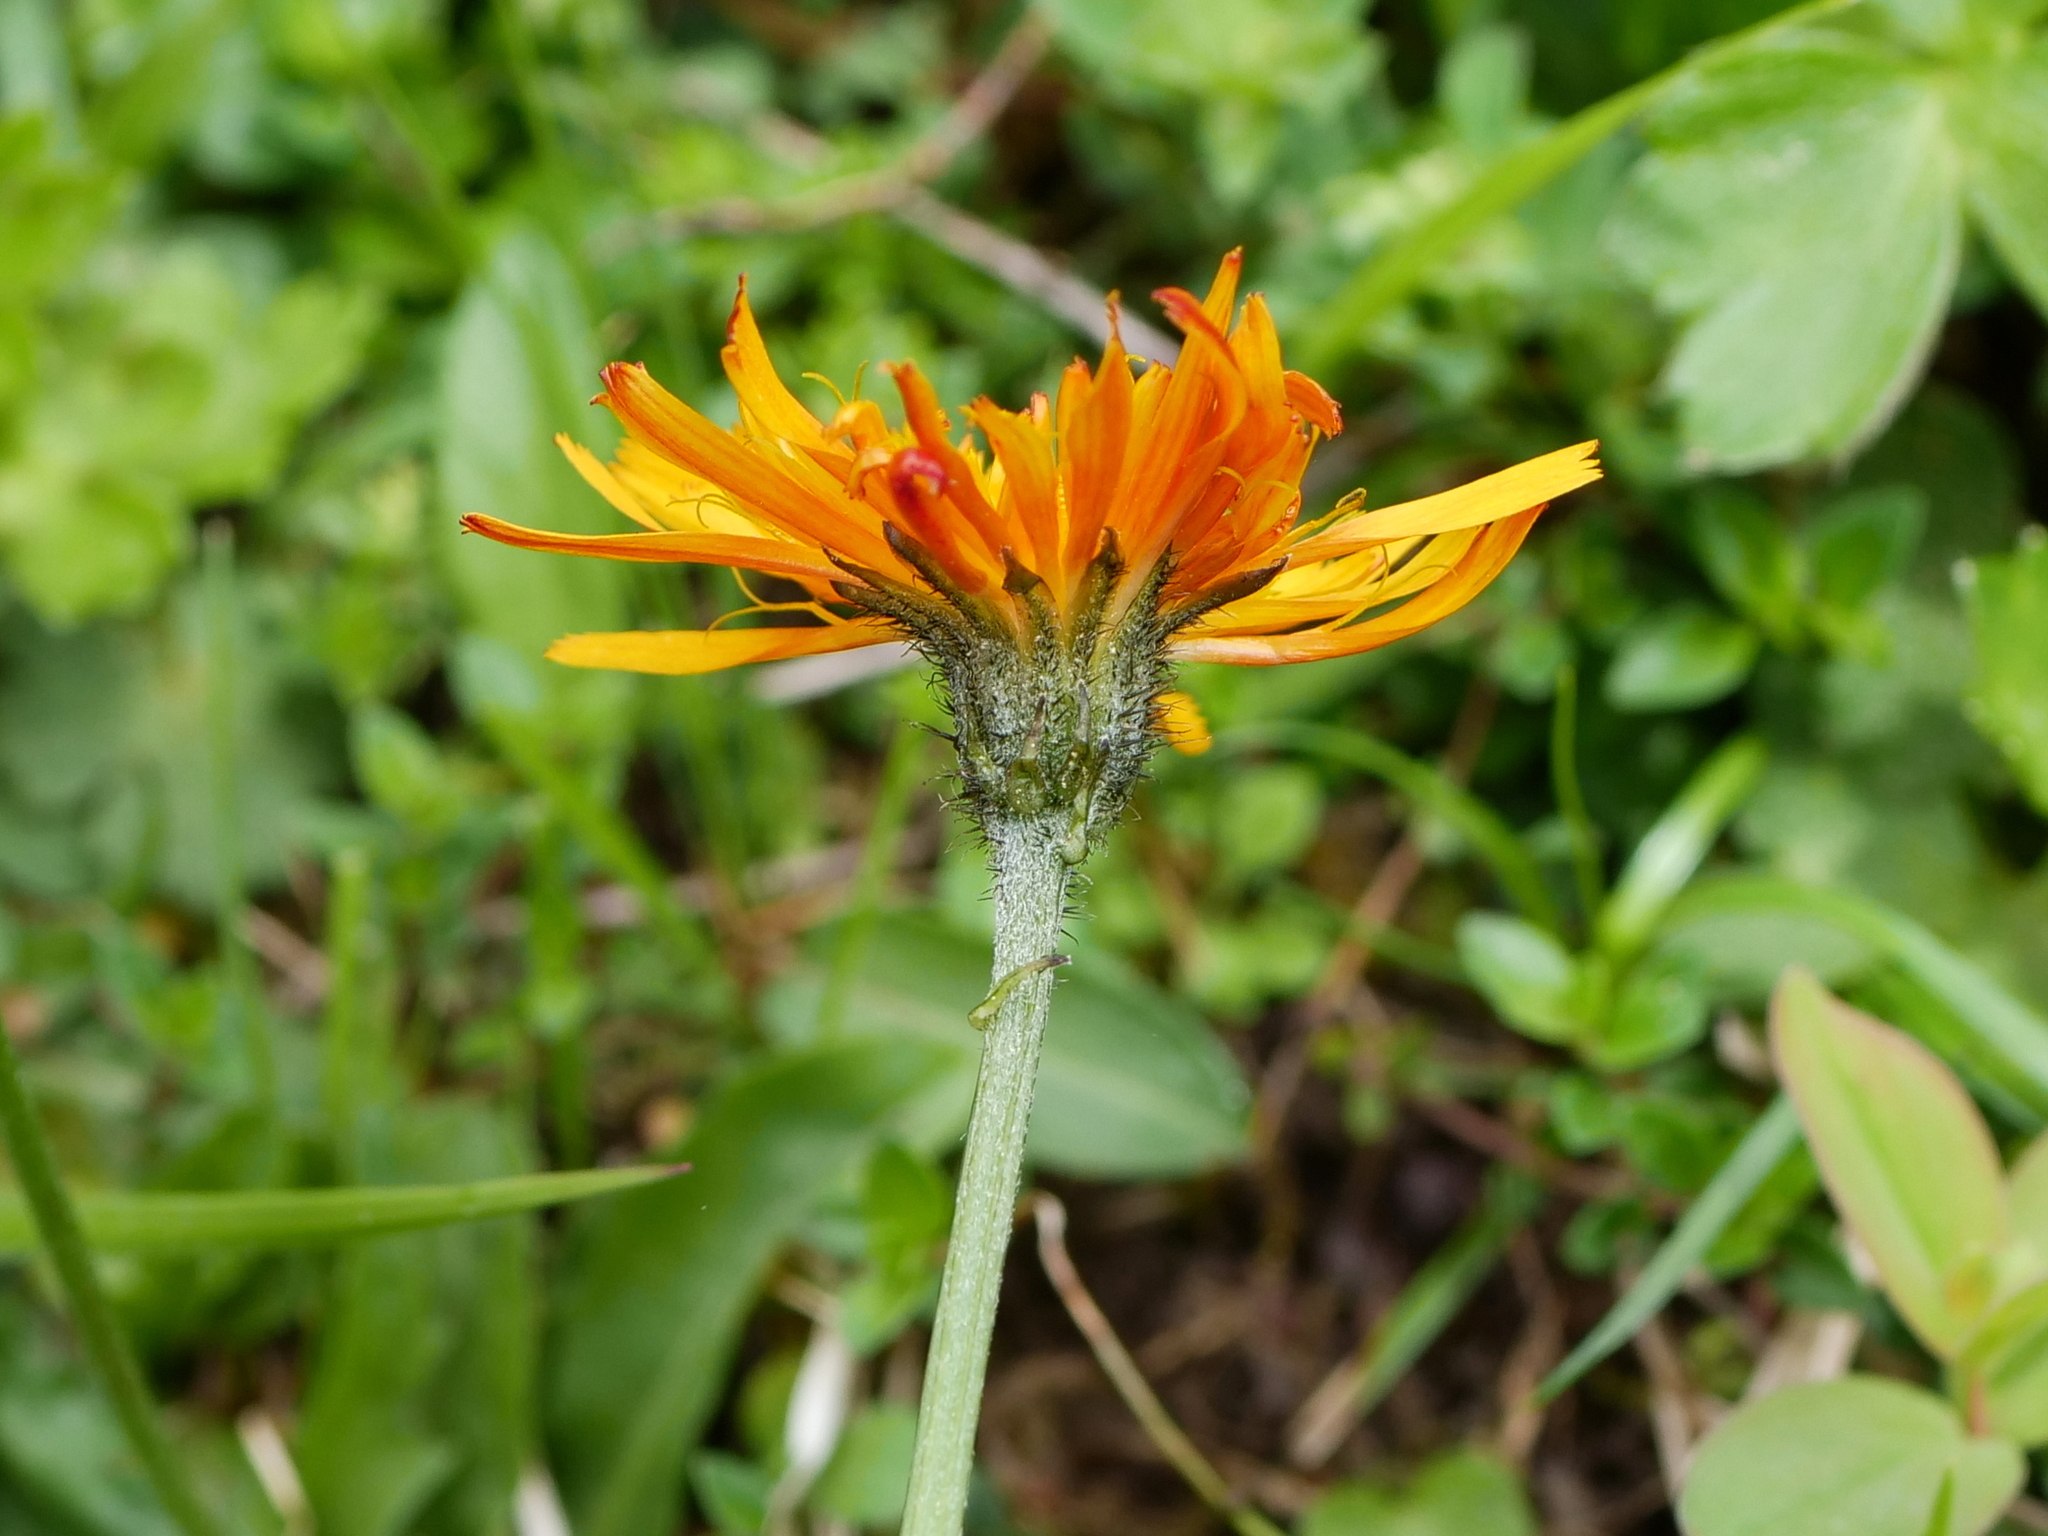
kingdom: Plantae
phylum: Tracheophyta
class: Magnoliopsida
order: Asterales
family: Asteraceae
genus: Crepis
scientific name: Crepis aurea
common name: Golden hawk's-beard
